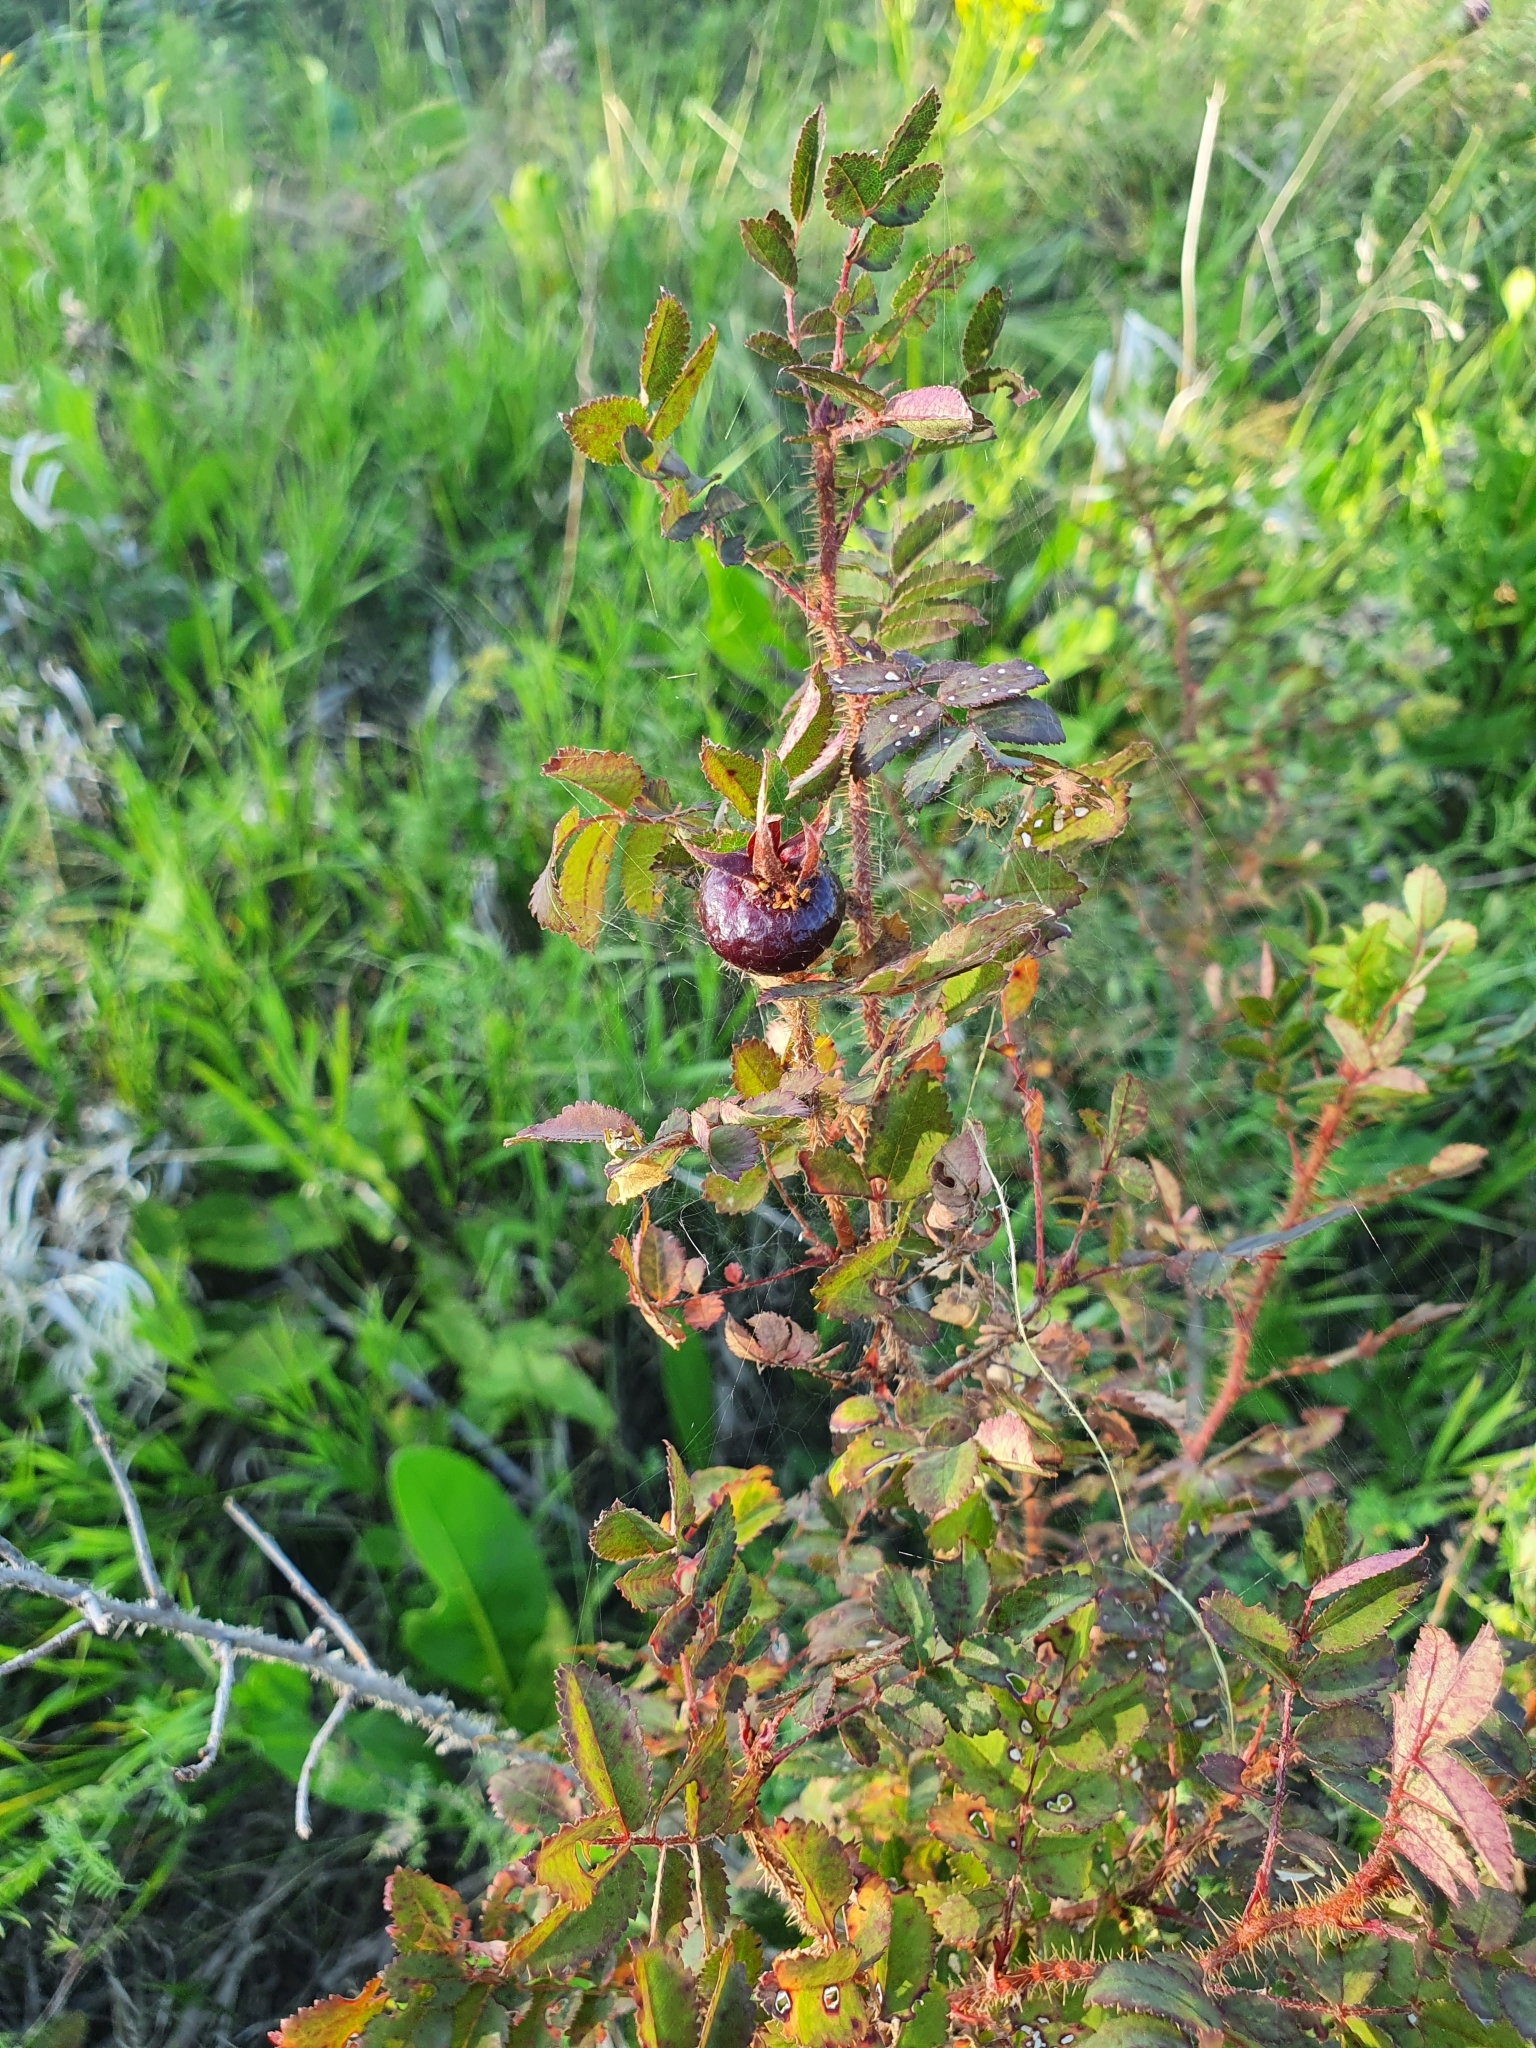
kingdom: Plantae
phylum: Tracheophyta
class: Magnoliopsida
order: Rosales
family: Rosaceae
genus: Rosa
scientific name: Rosa spinosissima
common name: Burnet rose
